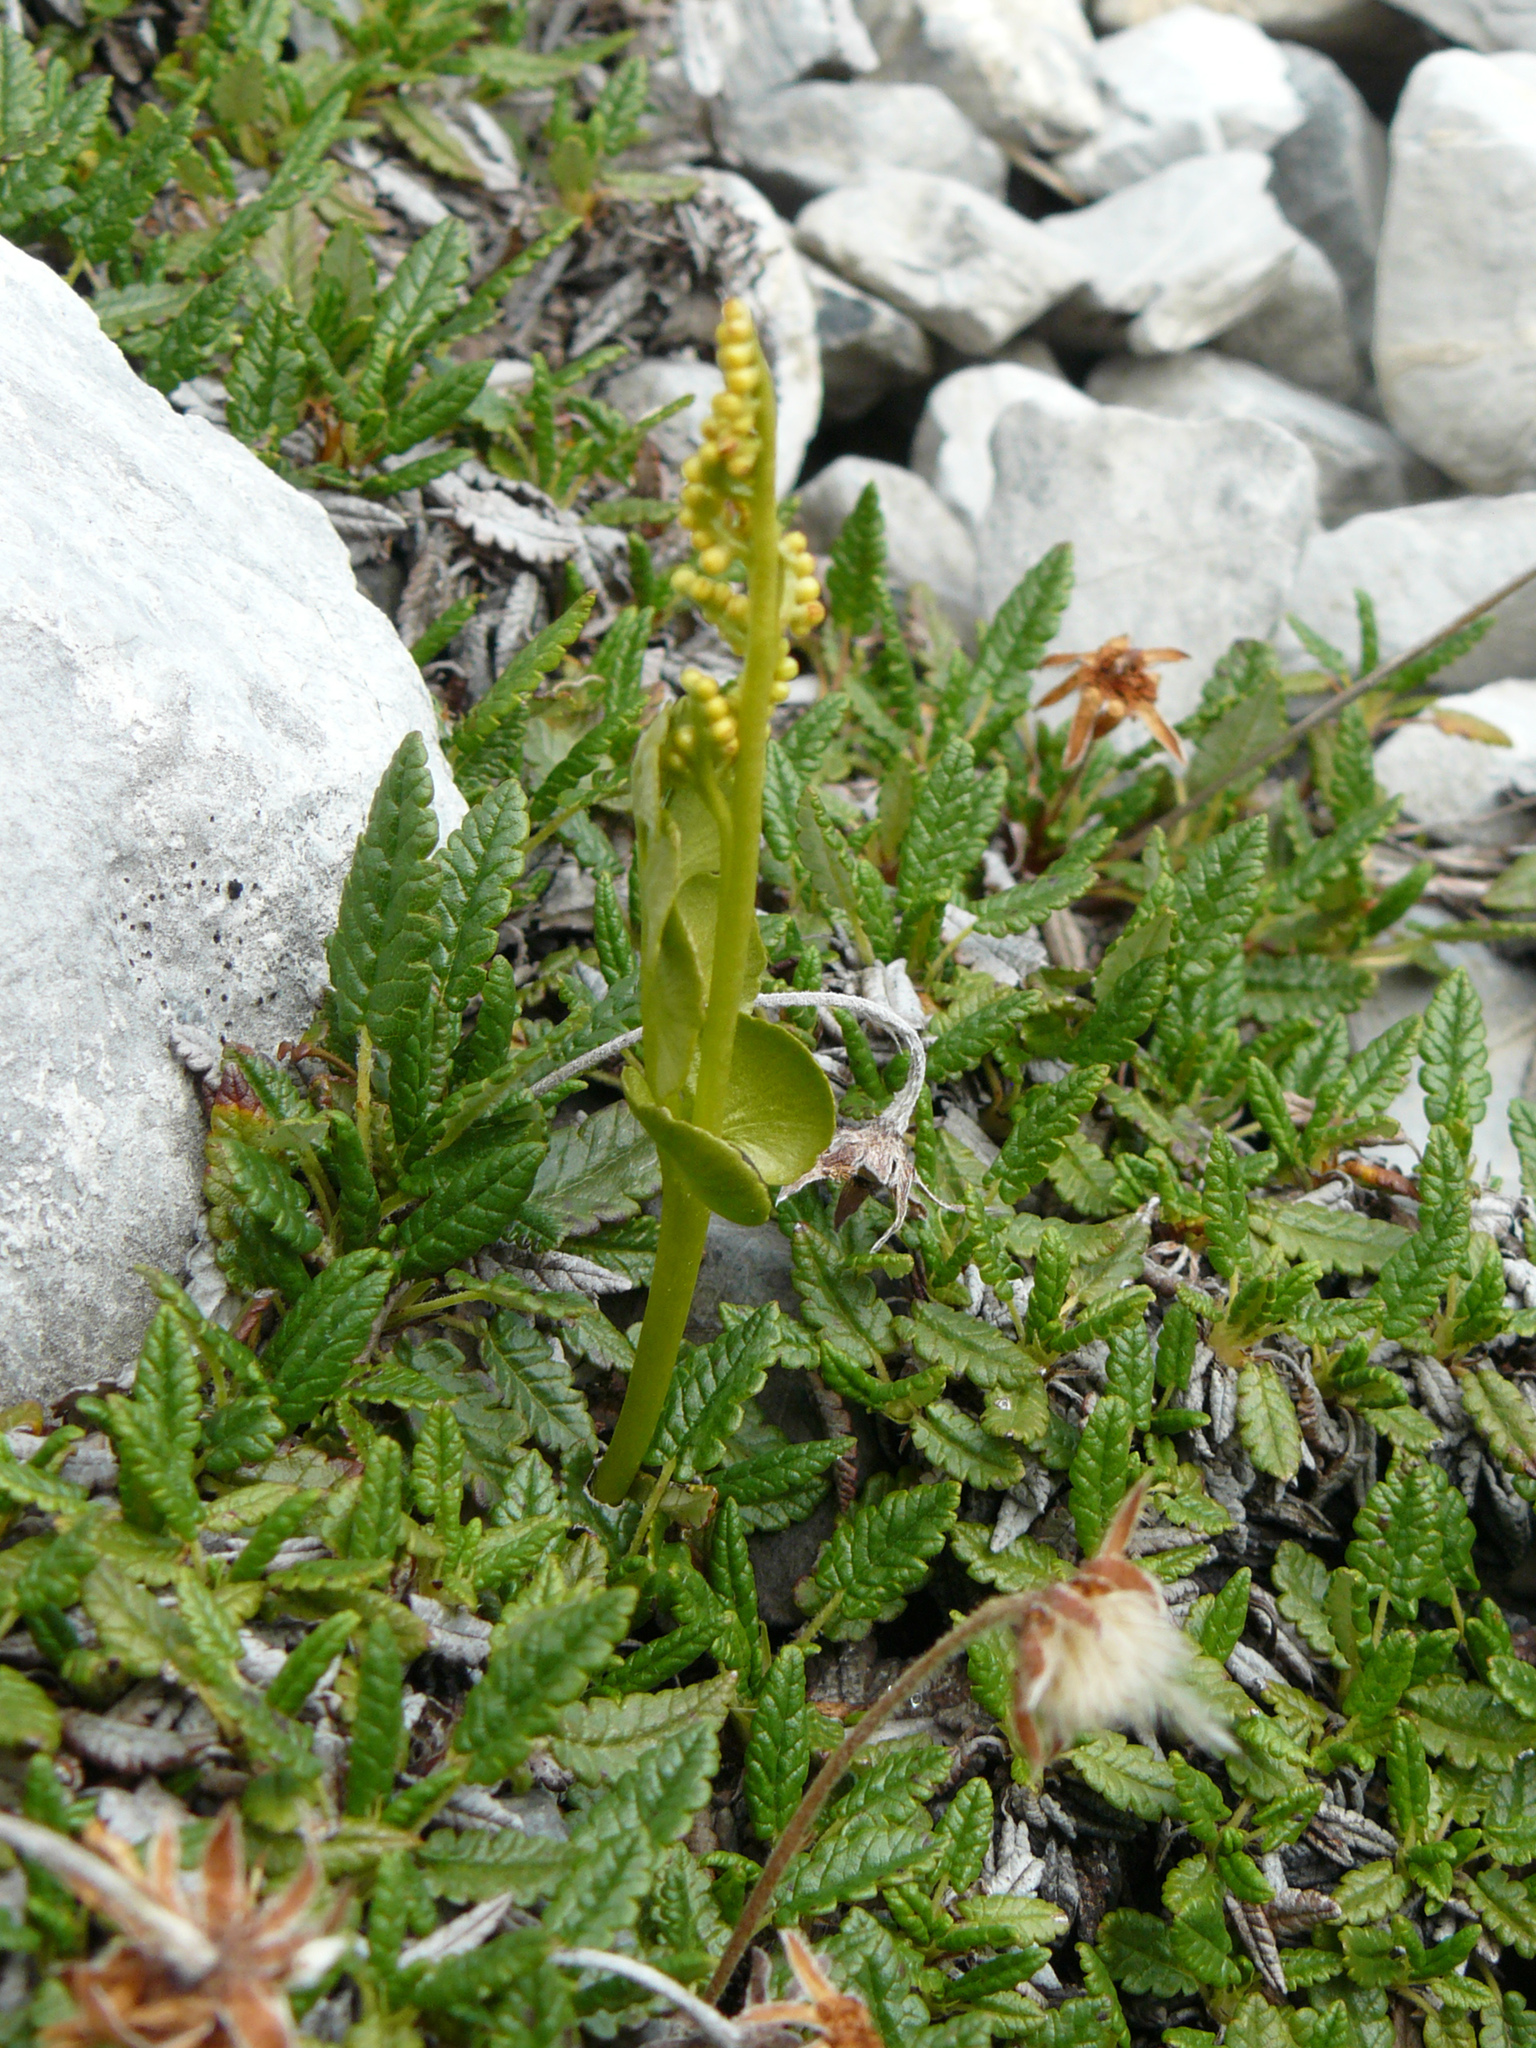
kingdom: Plantae
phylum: Tracheophyta
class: Polypodiopsida
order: Ophioglossales
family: Ophioglossaceae
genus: Botrychium
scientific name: Botrychium lunaria
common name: Moonwort
